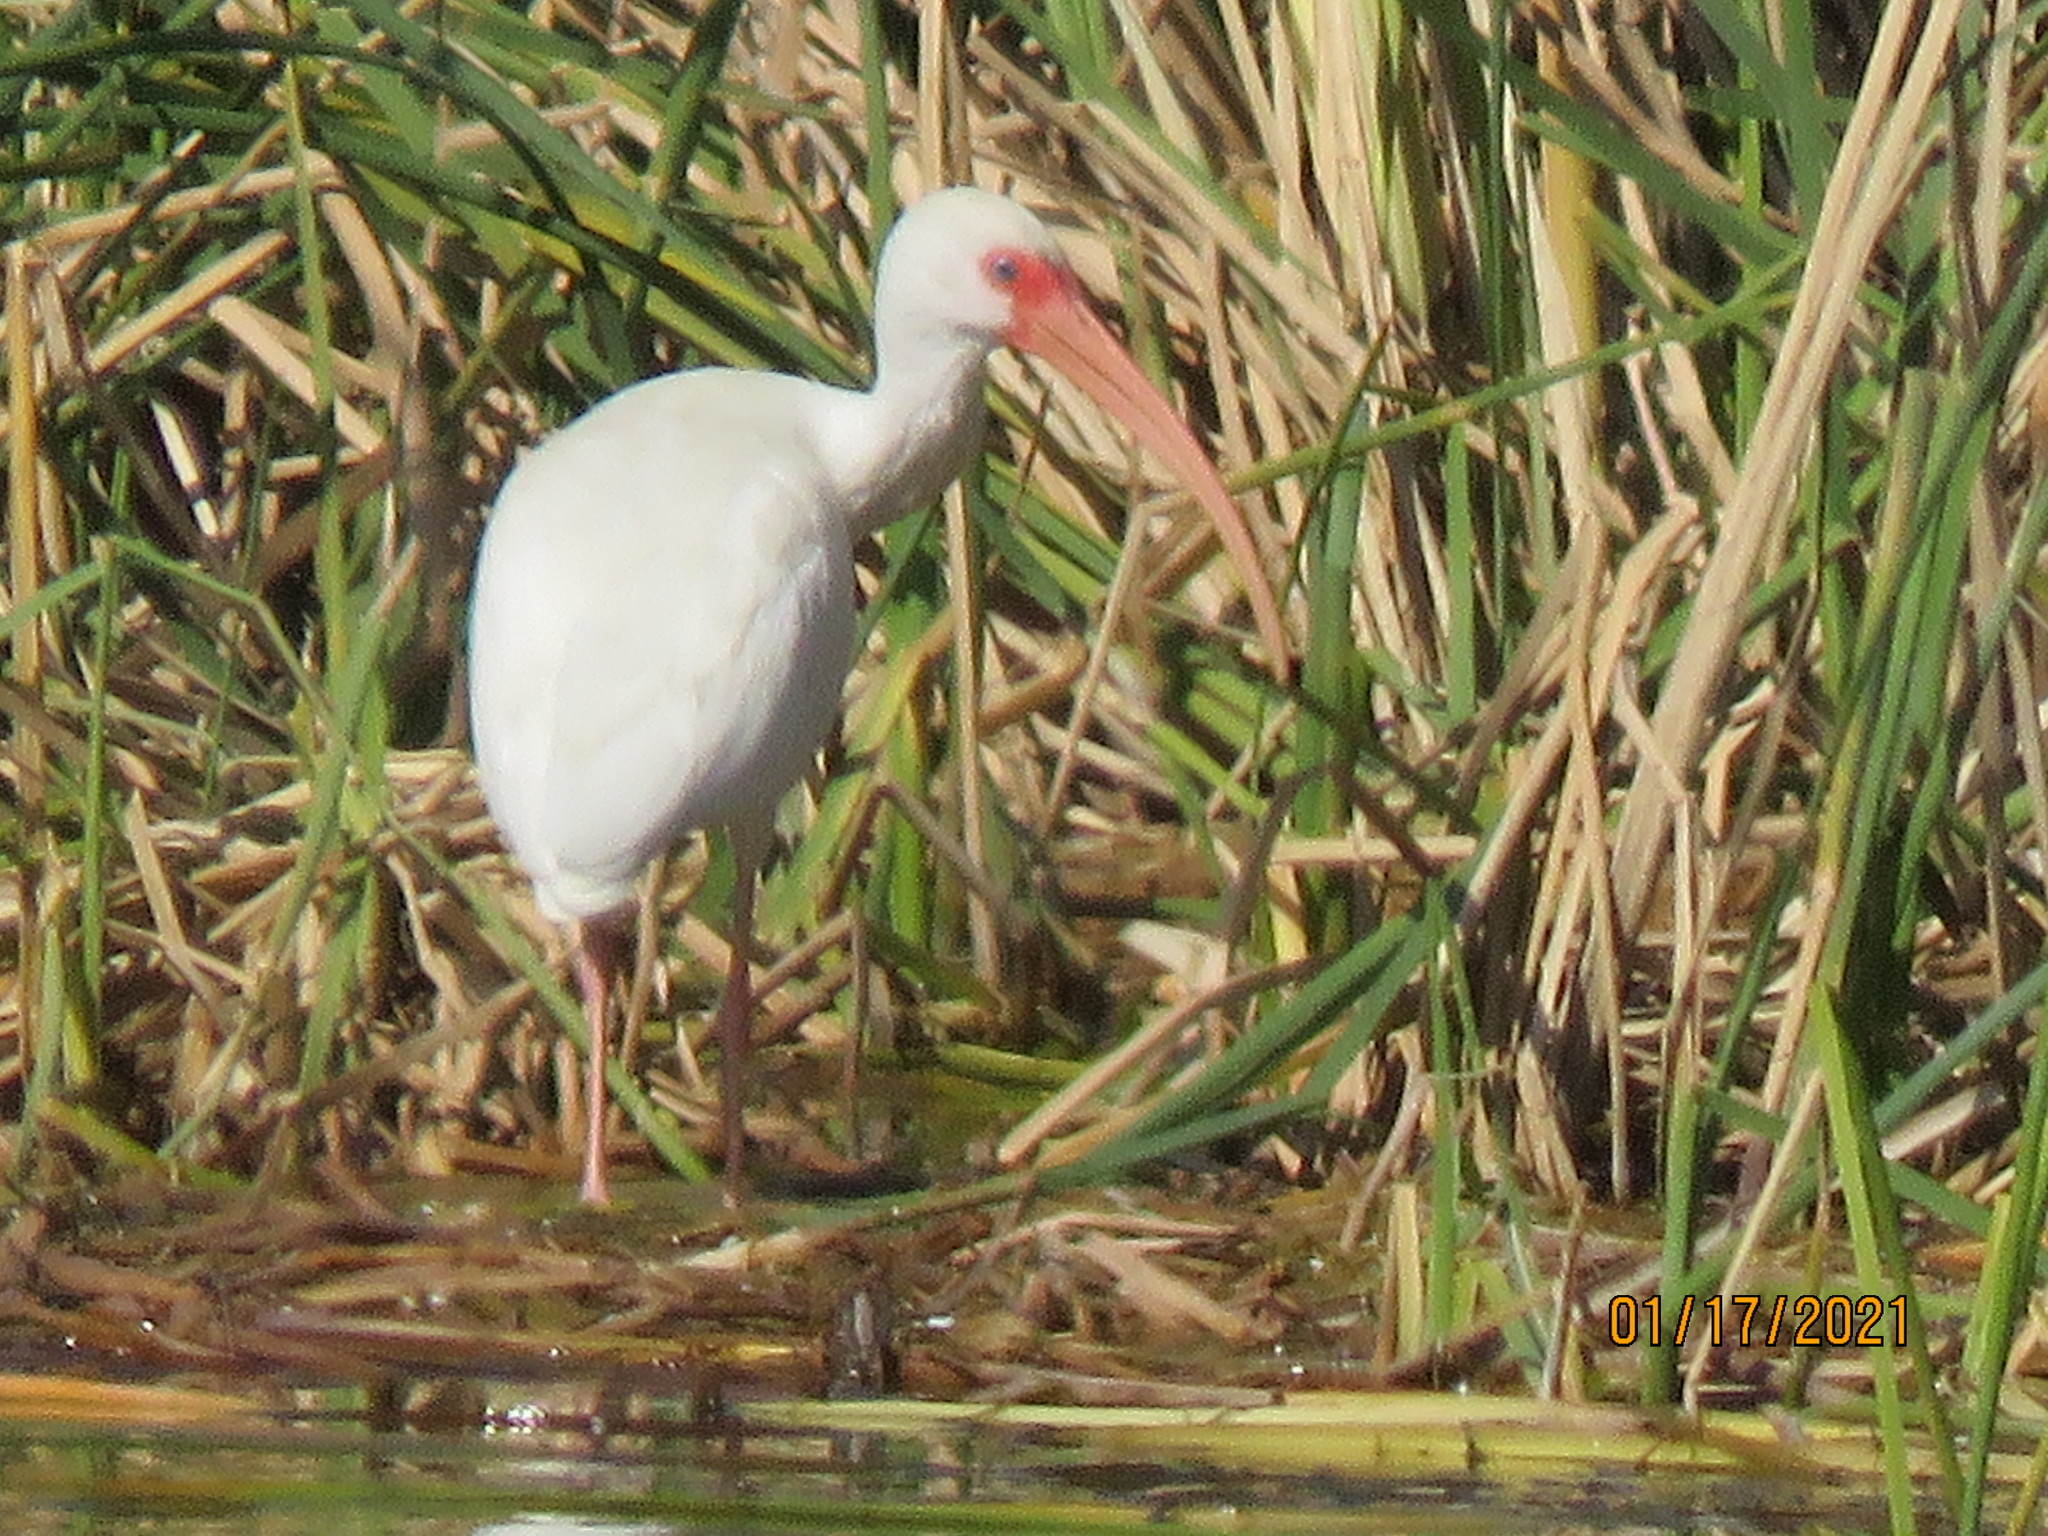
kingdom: Animalia
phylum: Chordata
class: Aves
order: Pelecaniformes
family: Threskiornithidae
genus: Eudocimus
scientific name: Eudocimus albus
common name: White ibis
